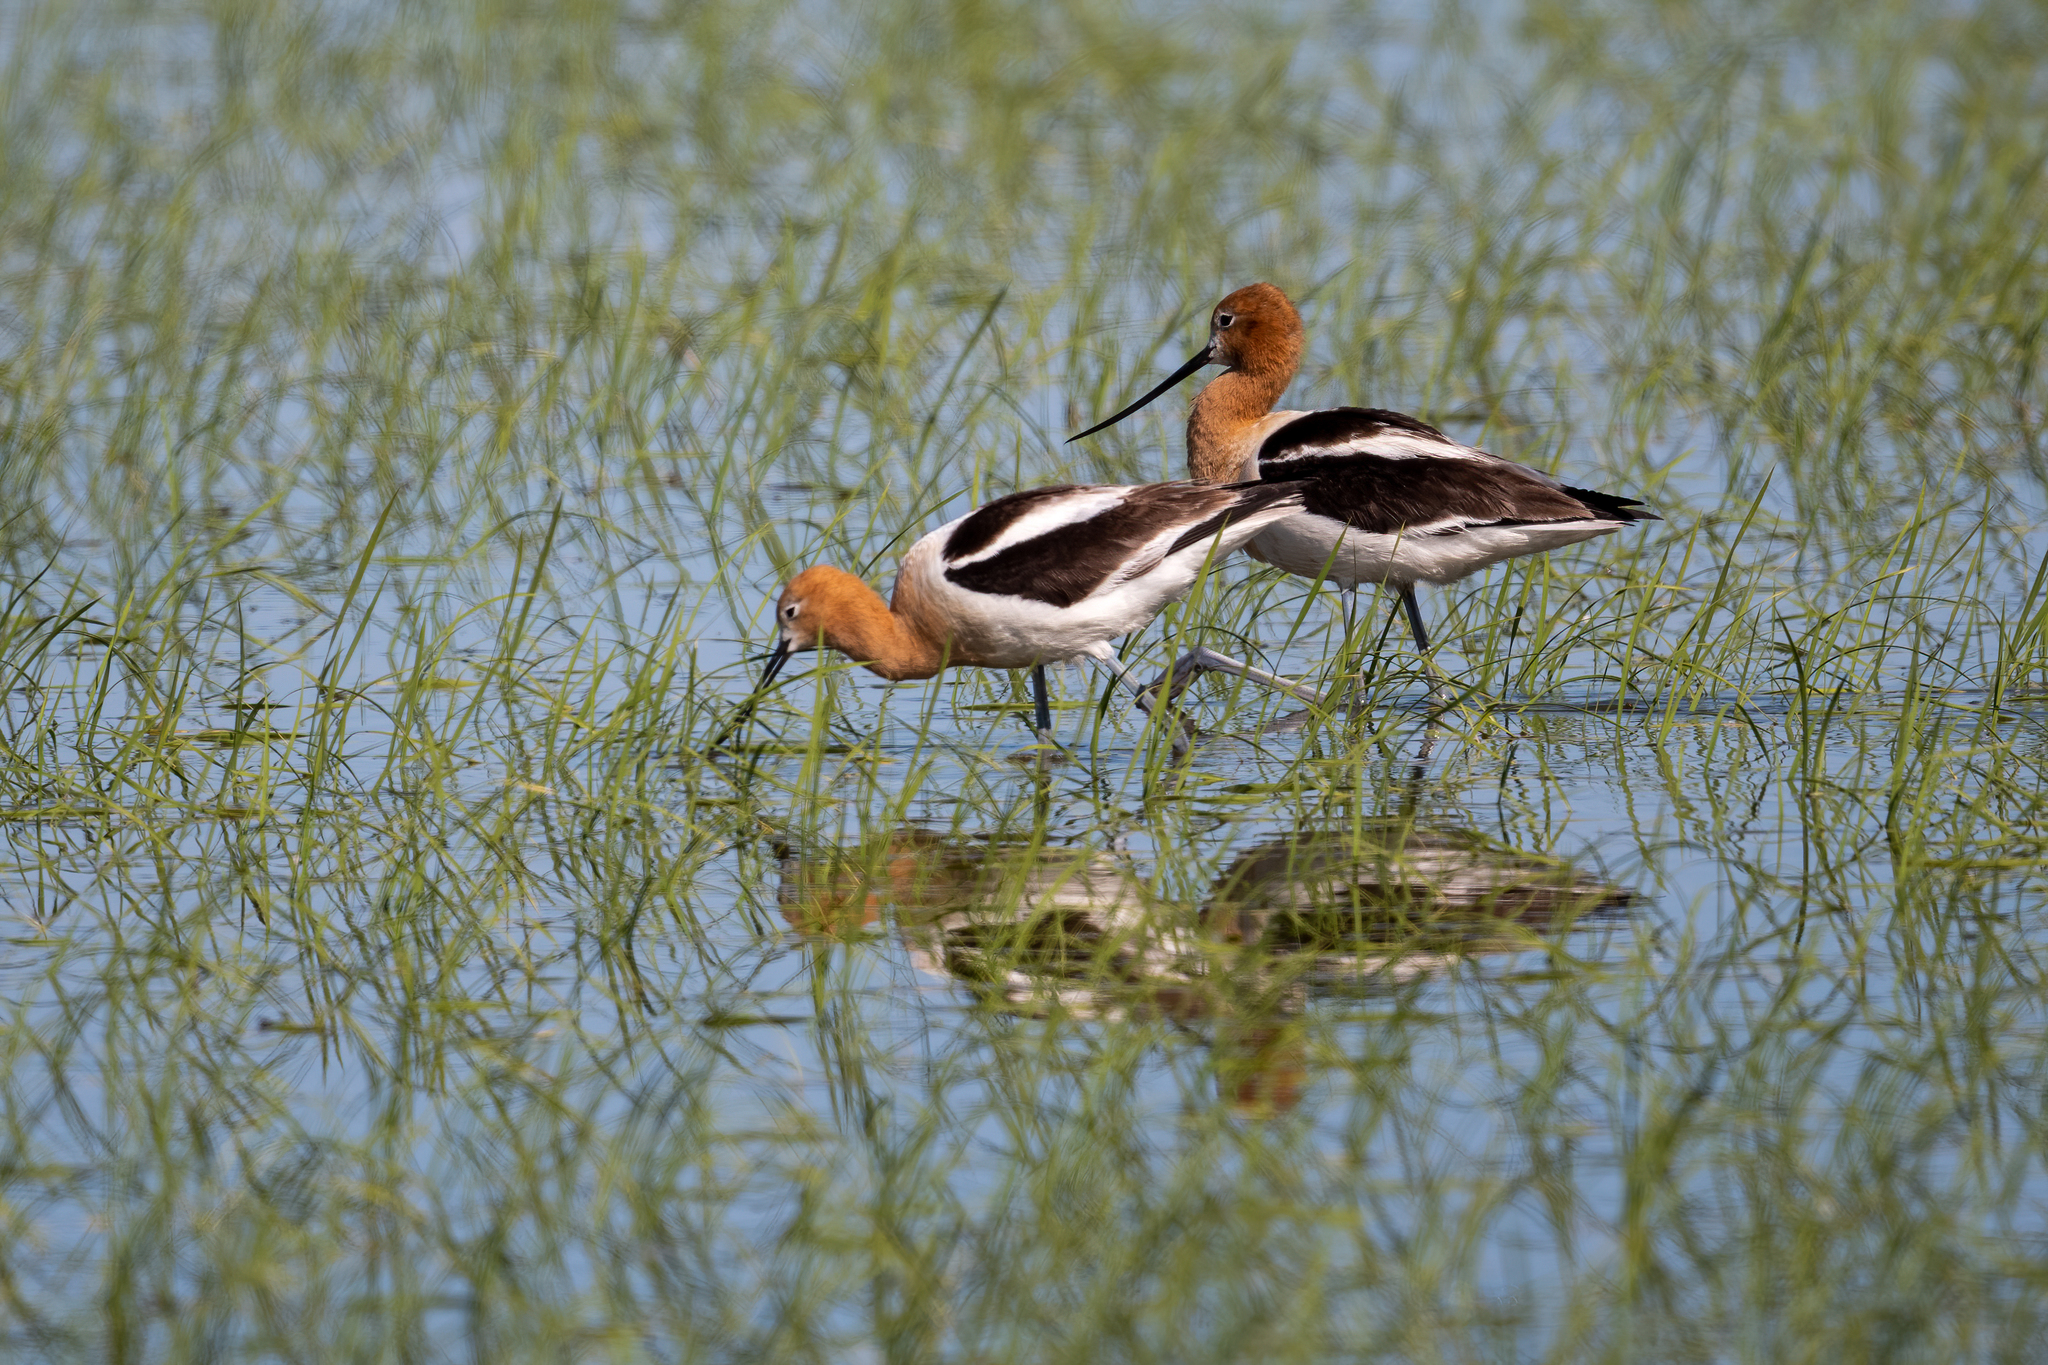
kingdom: Animalia
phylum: Chordata
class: Aves
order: Charadriiformes
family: Recurvirostridae
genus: Recurvirostra
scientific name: Recurvirostra americana
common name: American avocet
